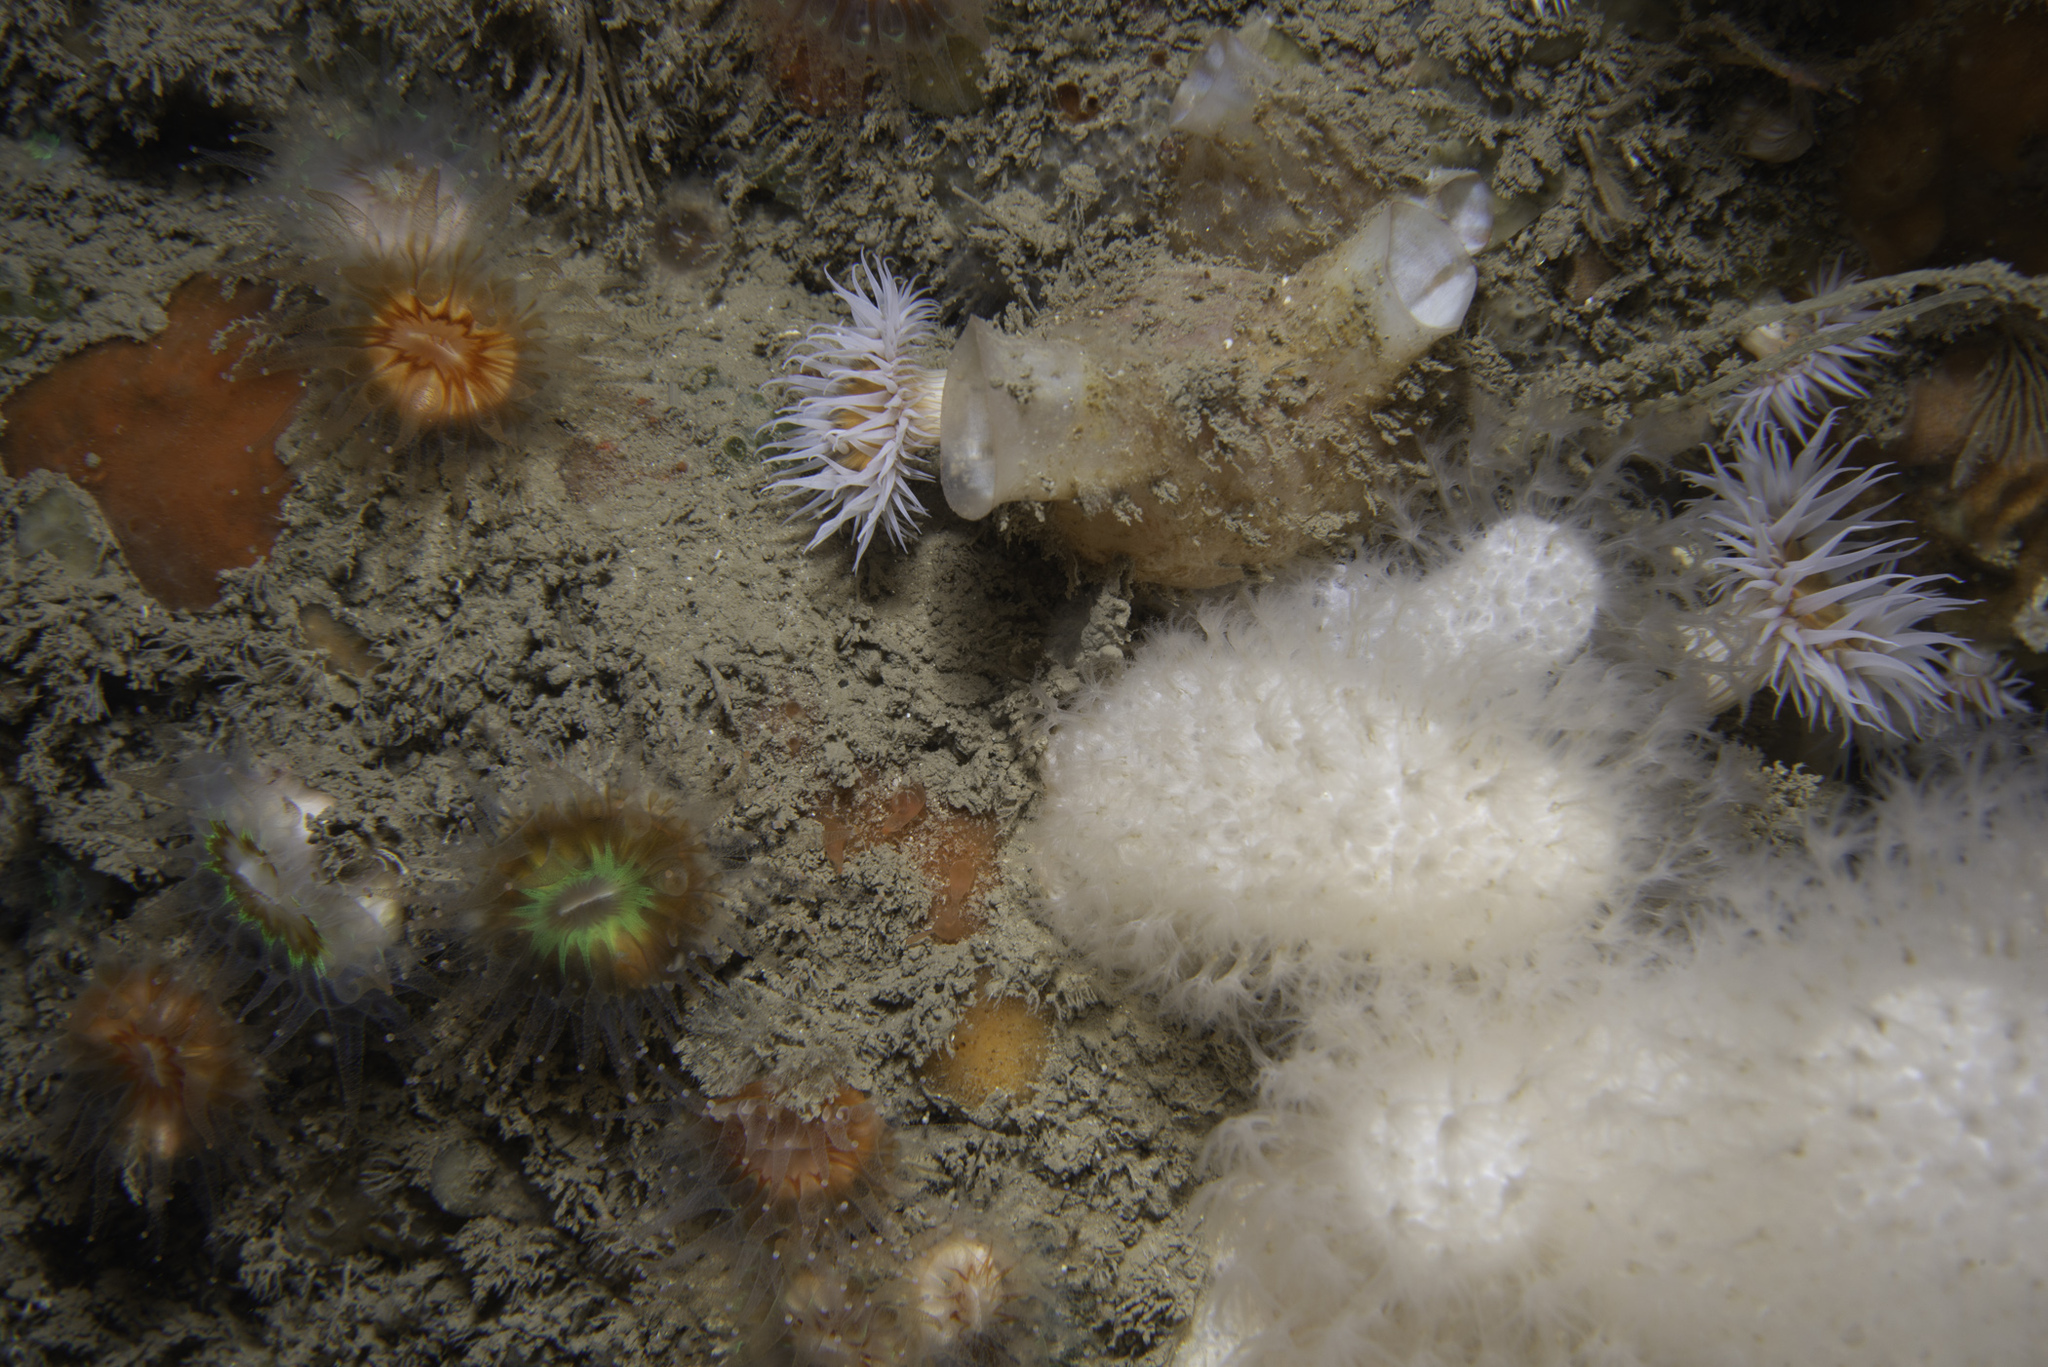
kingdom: Animalia
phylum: Cnidaria
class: Anthozoa
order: Scleractinia
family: Caryophylliidae
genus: Caryophyllia
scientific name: Caryophyllia smithii
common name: Devonshire cup coral
